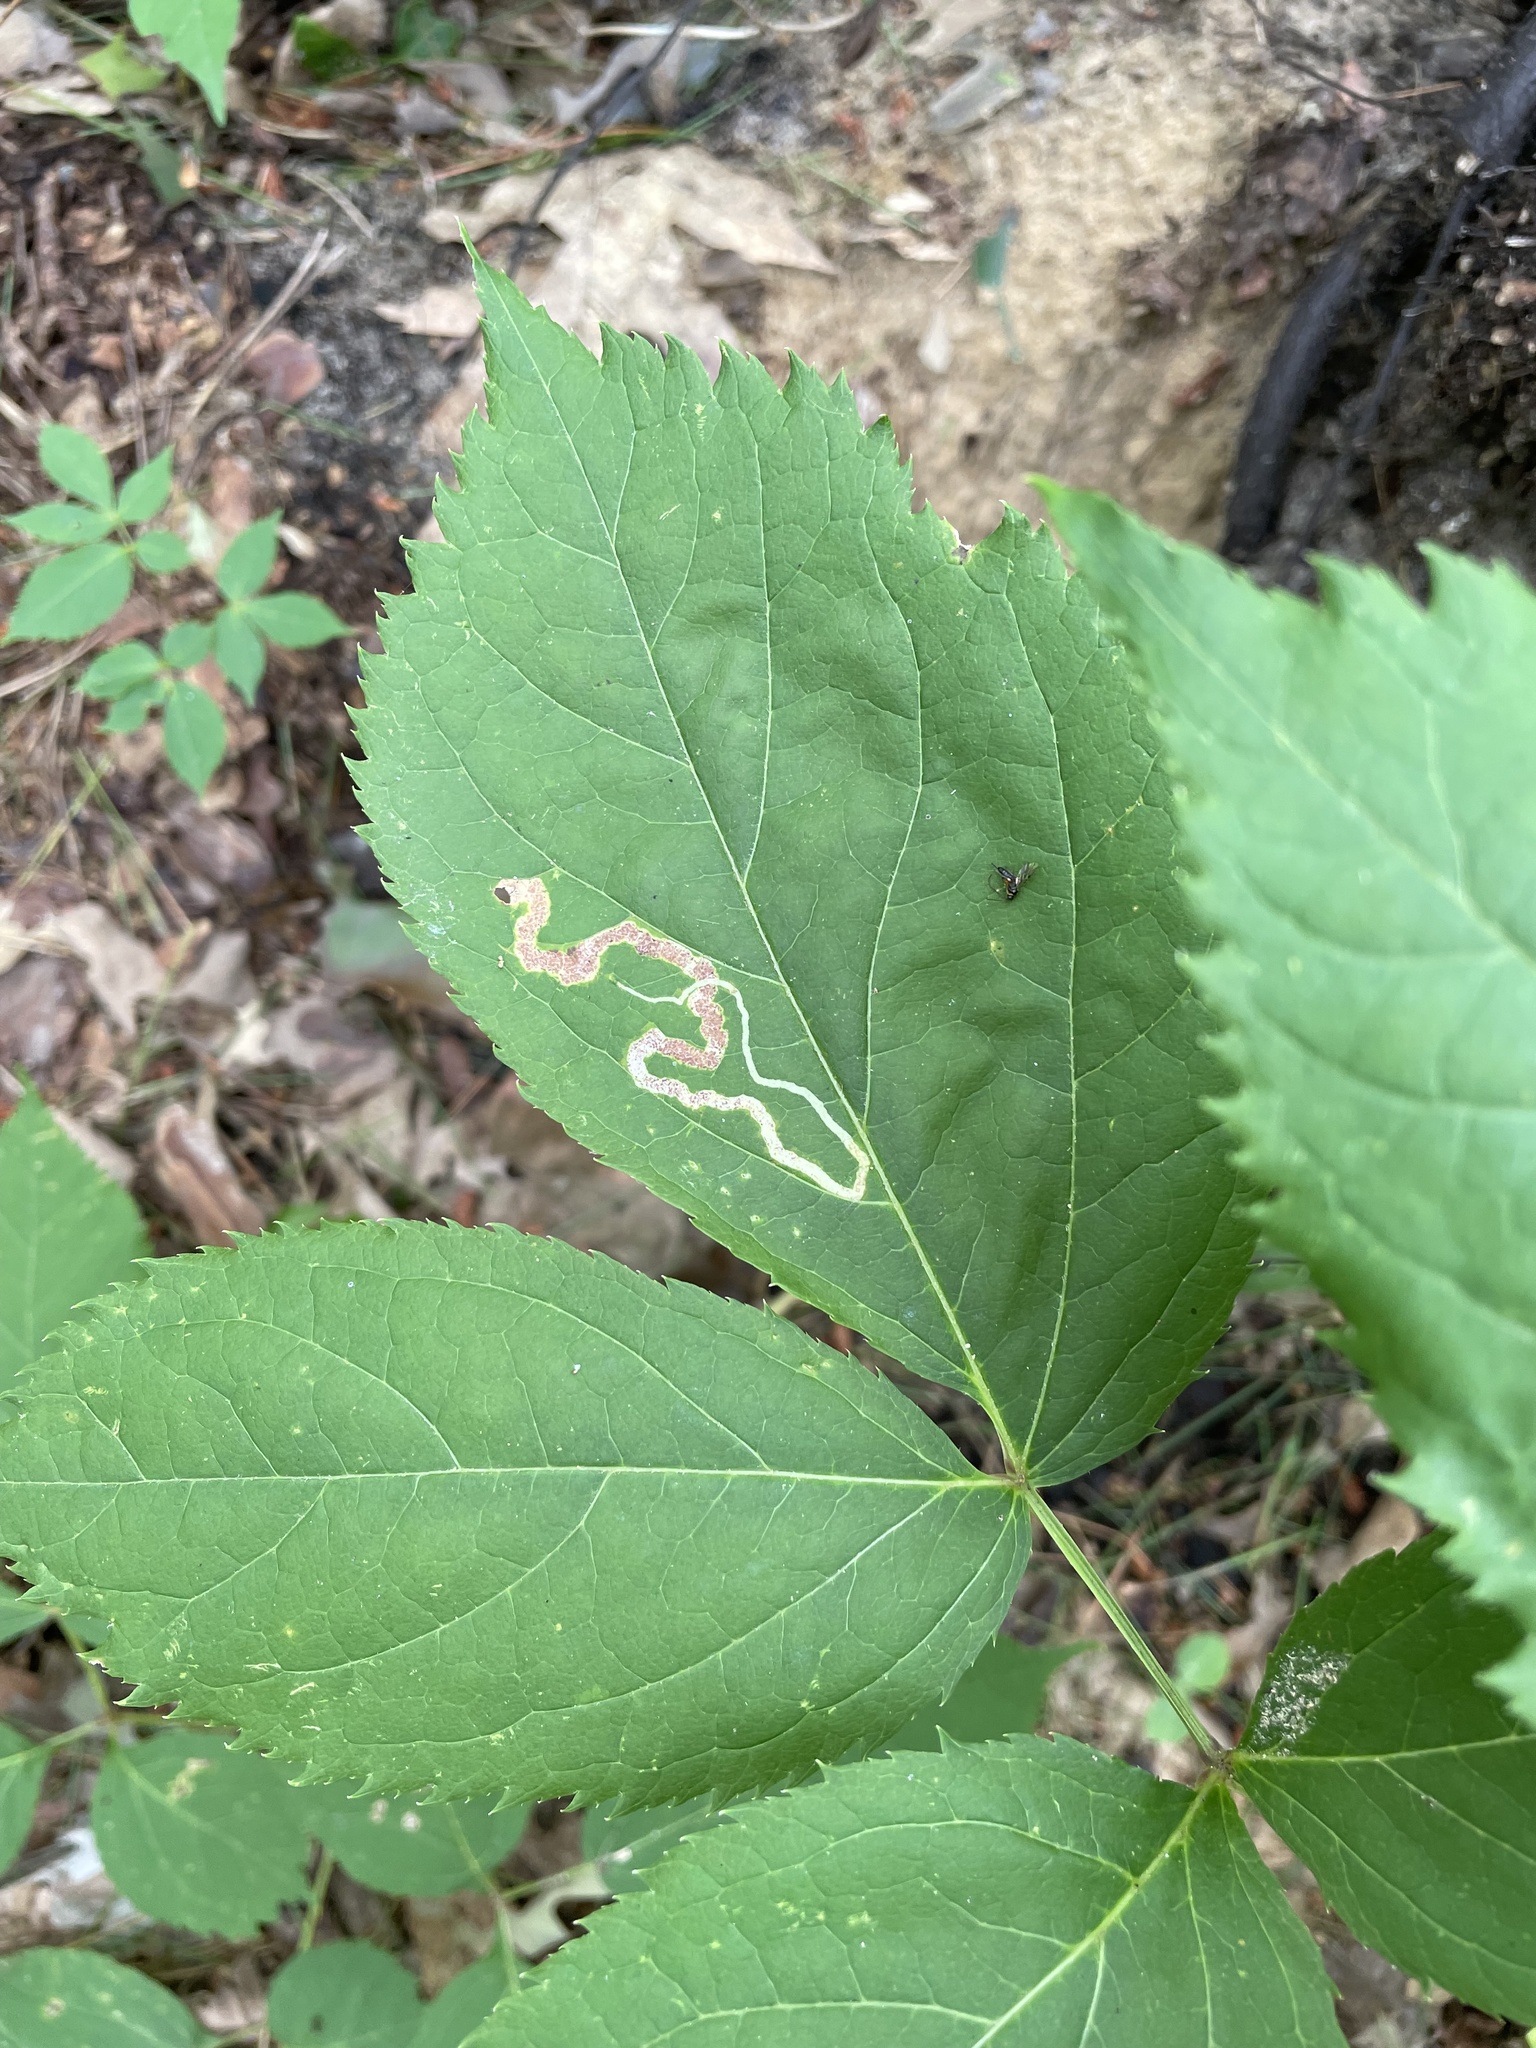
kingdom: Animalia
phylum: Arthropoda
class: Insecta
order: Diptera
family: Agromyzidae
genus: Phytomyza
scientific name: Phytomyza aralivora
